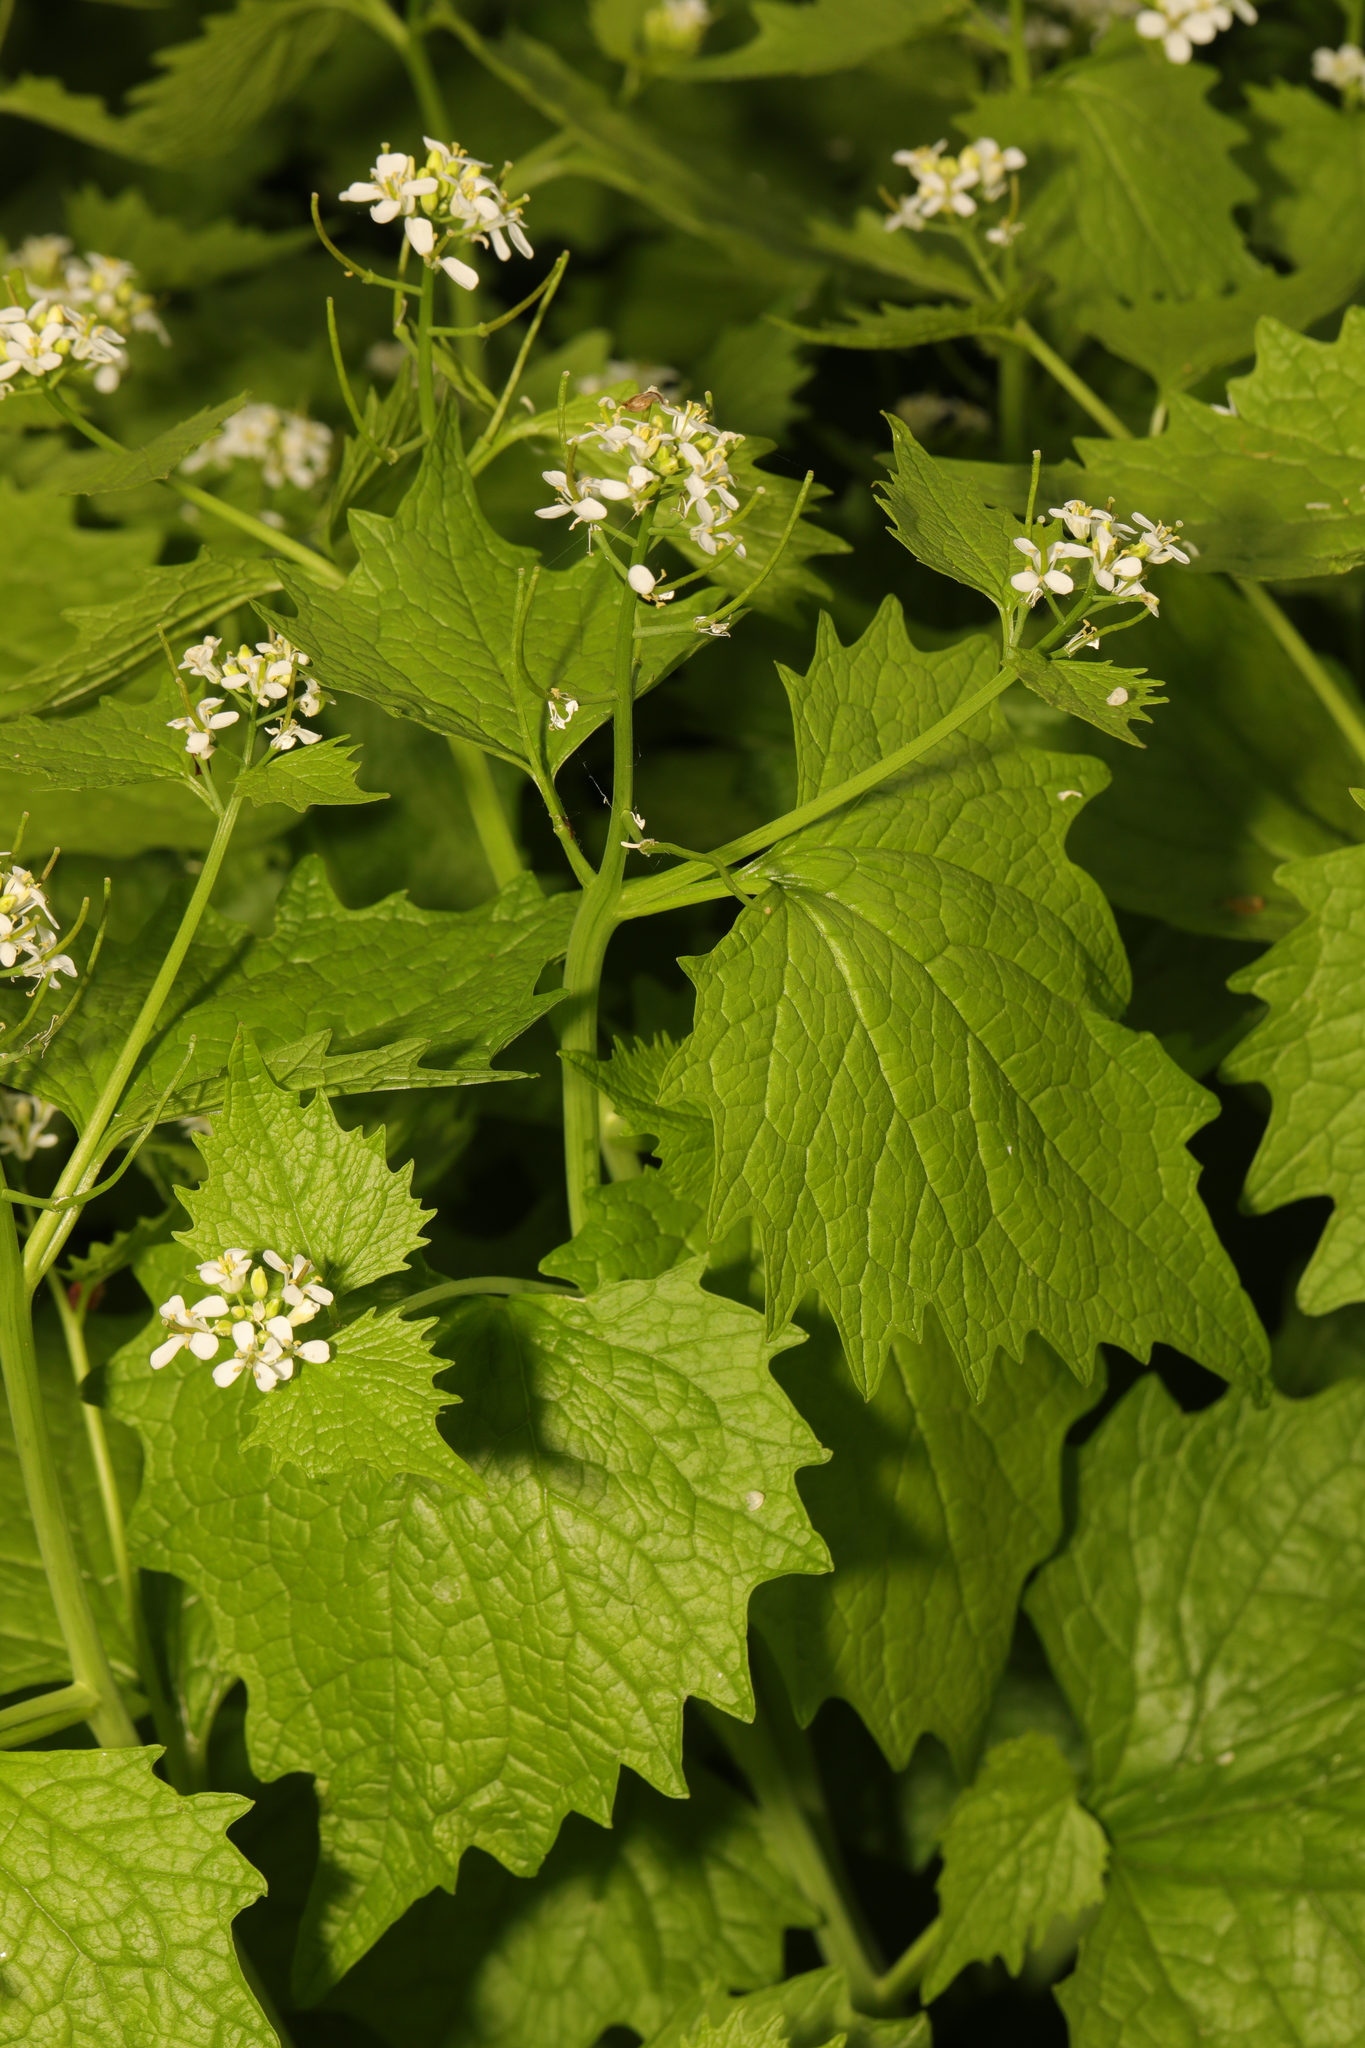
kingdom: Plantae
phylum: Tracheophyta
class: Magnoliopsida
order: Brassicales
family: Brassicaceae
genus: Alliaria
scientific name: Alliaria petiolata
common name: Garlic mustard
